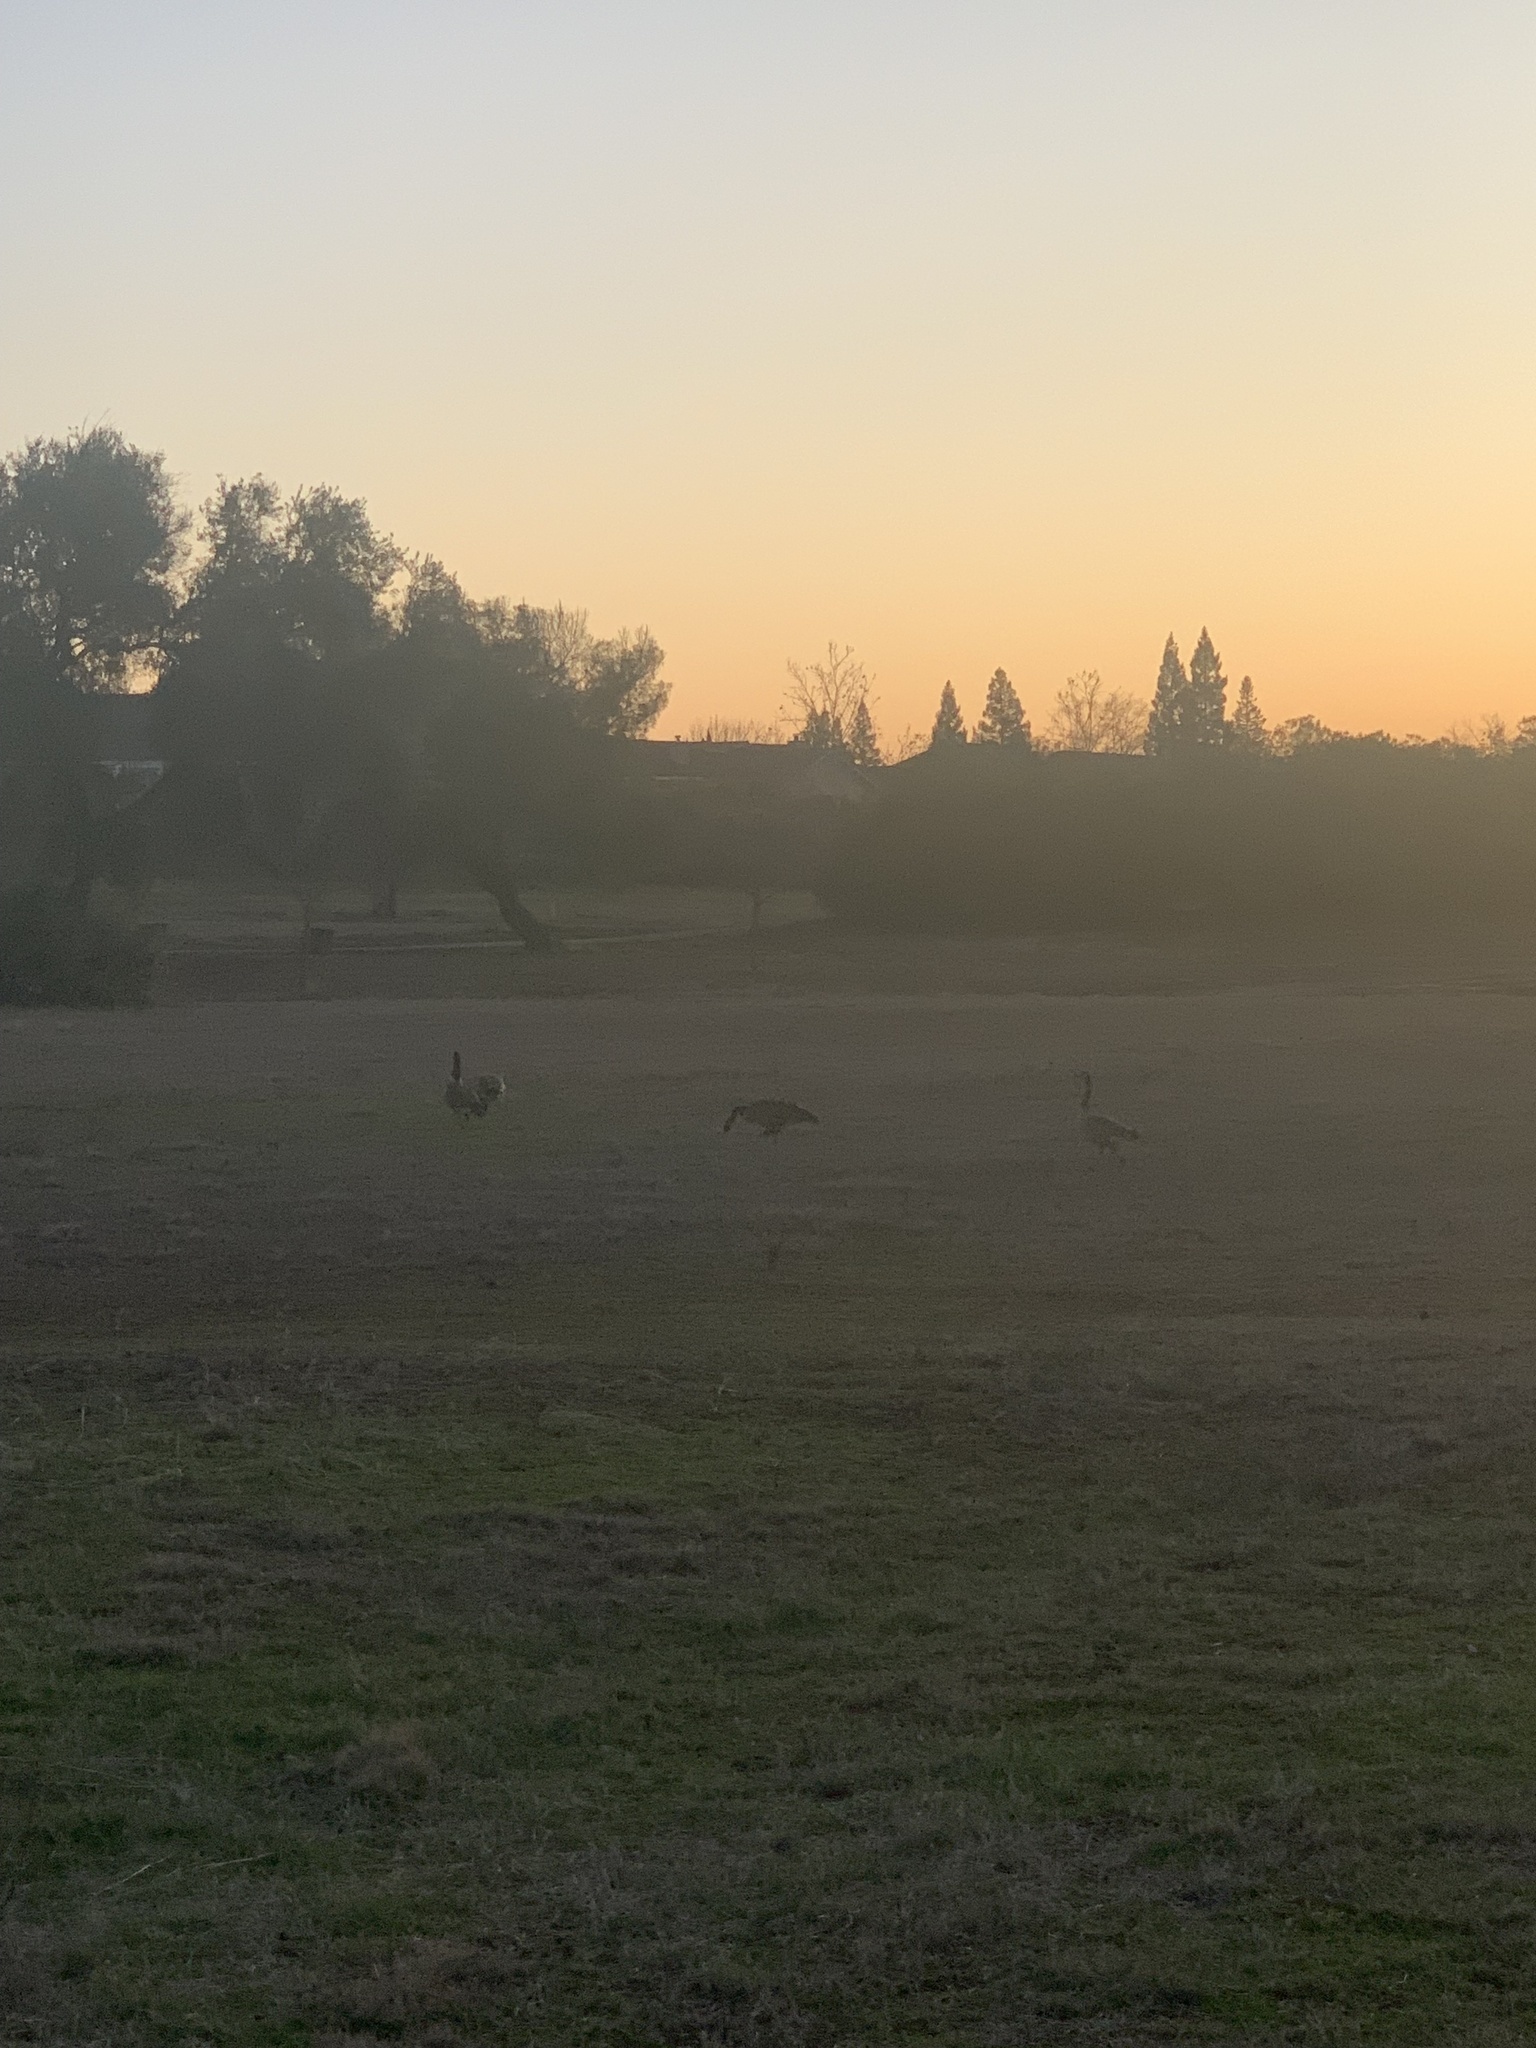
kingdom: Animalia
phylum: Chordata
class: Aves
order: Anseriformes
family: Anatidae
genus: Branta
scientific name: Branta canadensis
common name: Canada goose
